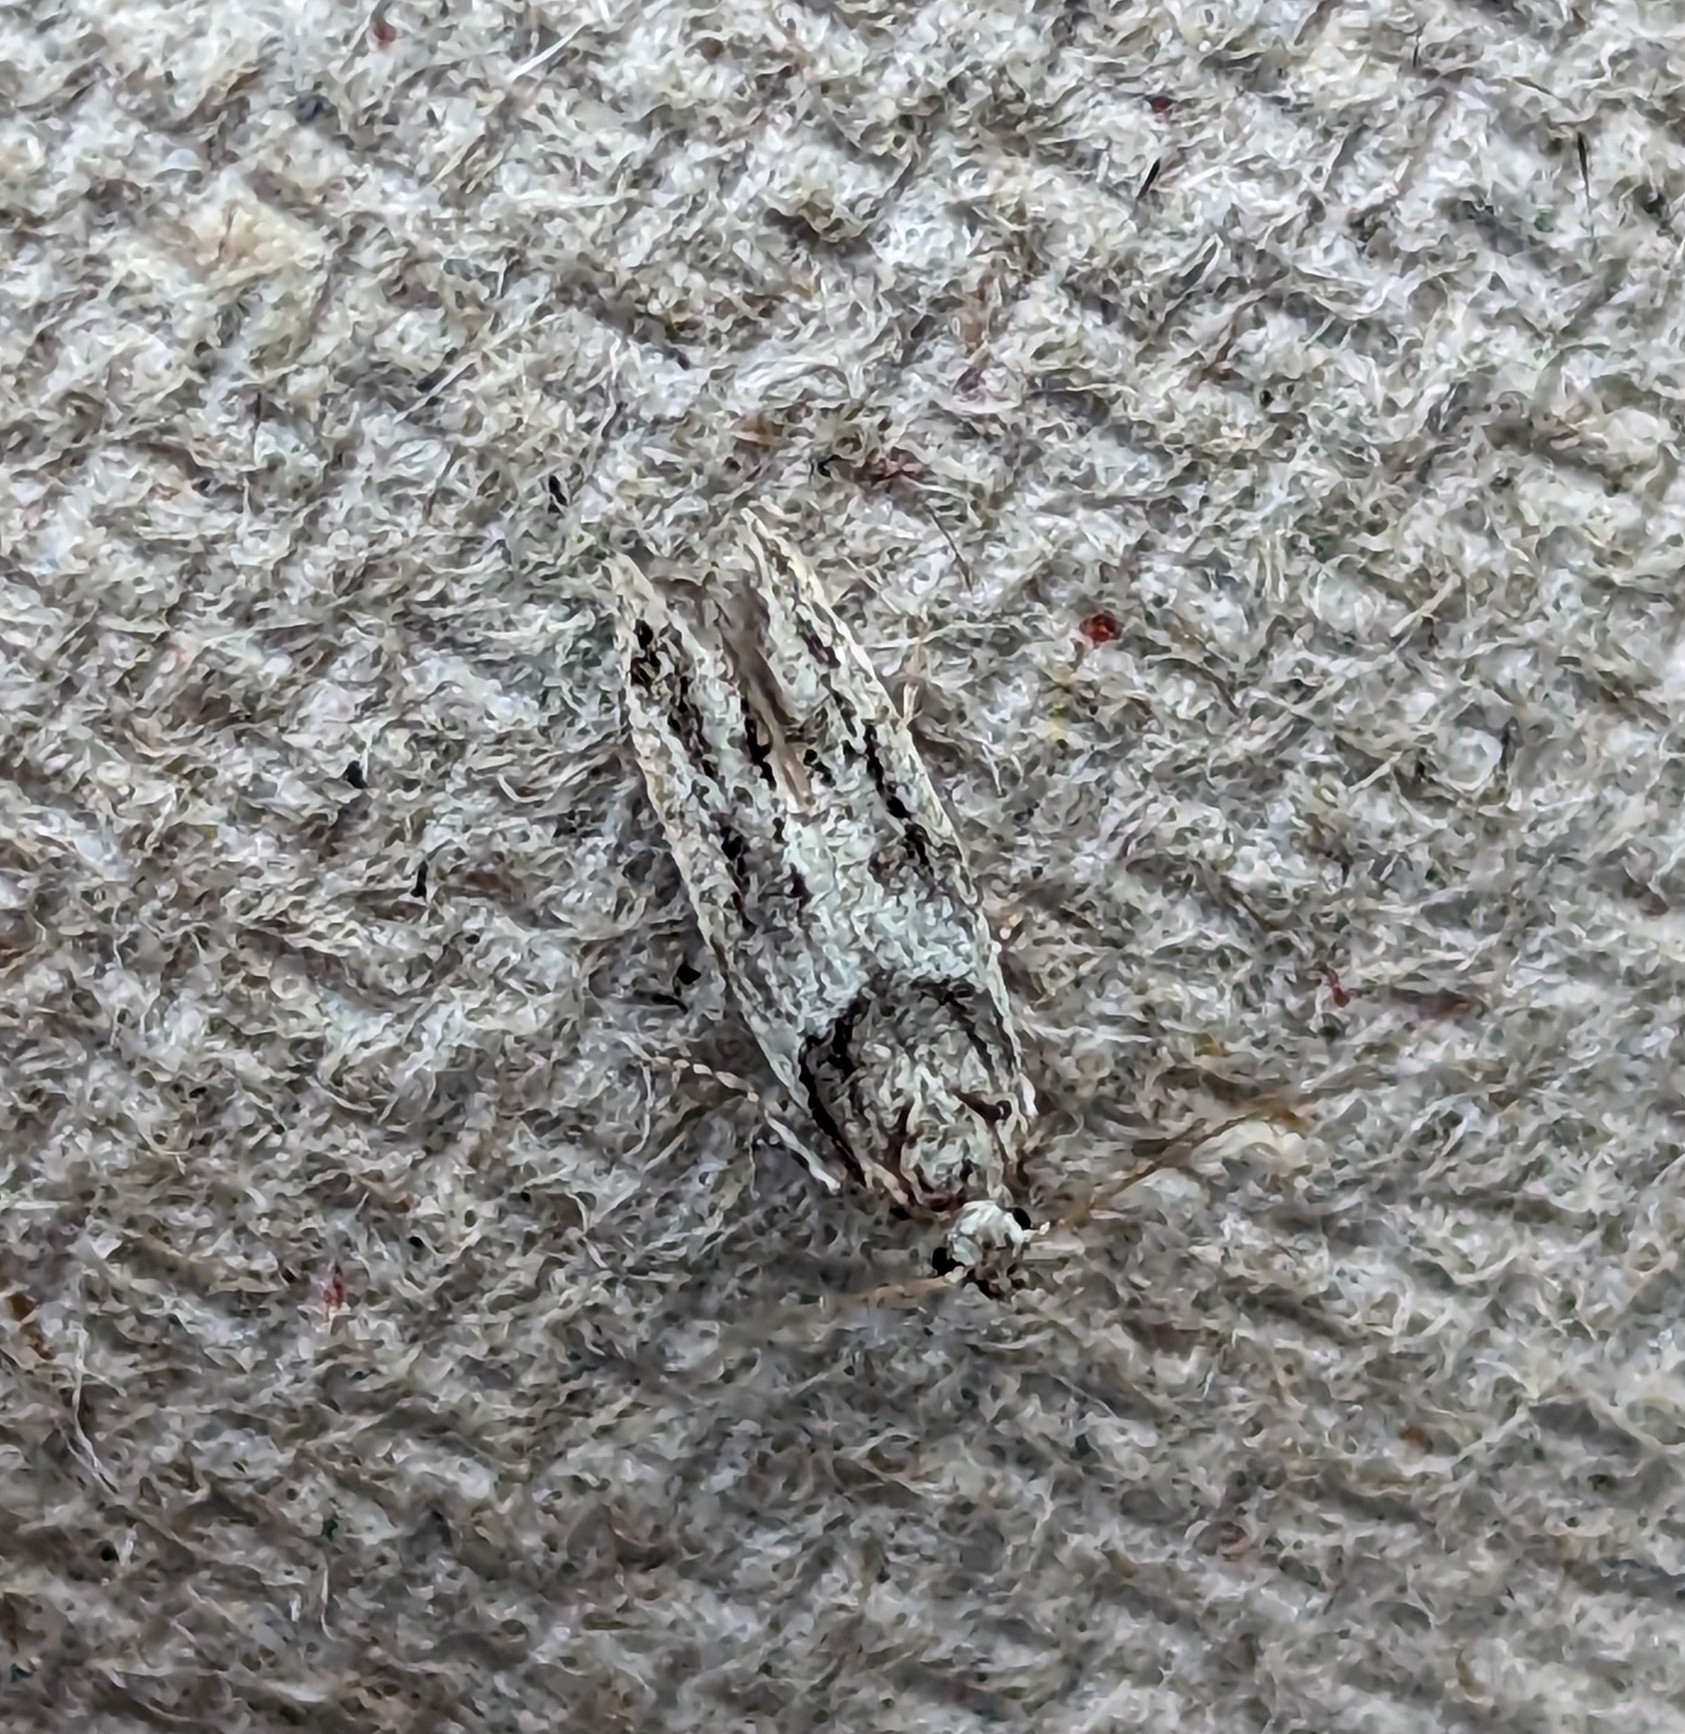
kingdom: Animalia
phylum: Arthropoda
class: Insecta
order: Lepidoptera
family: Gelechiidae
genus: Recurvaria
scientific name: Recurvaria nanella
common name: Gelechiid moth
